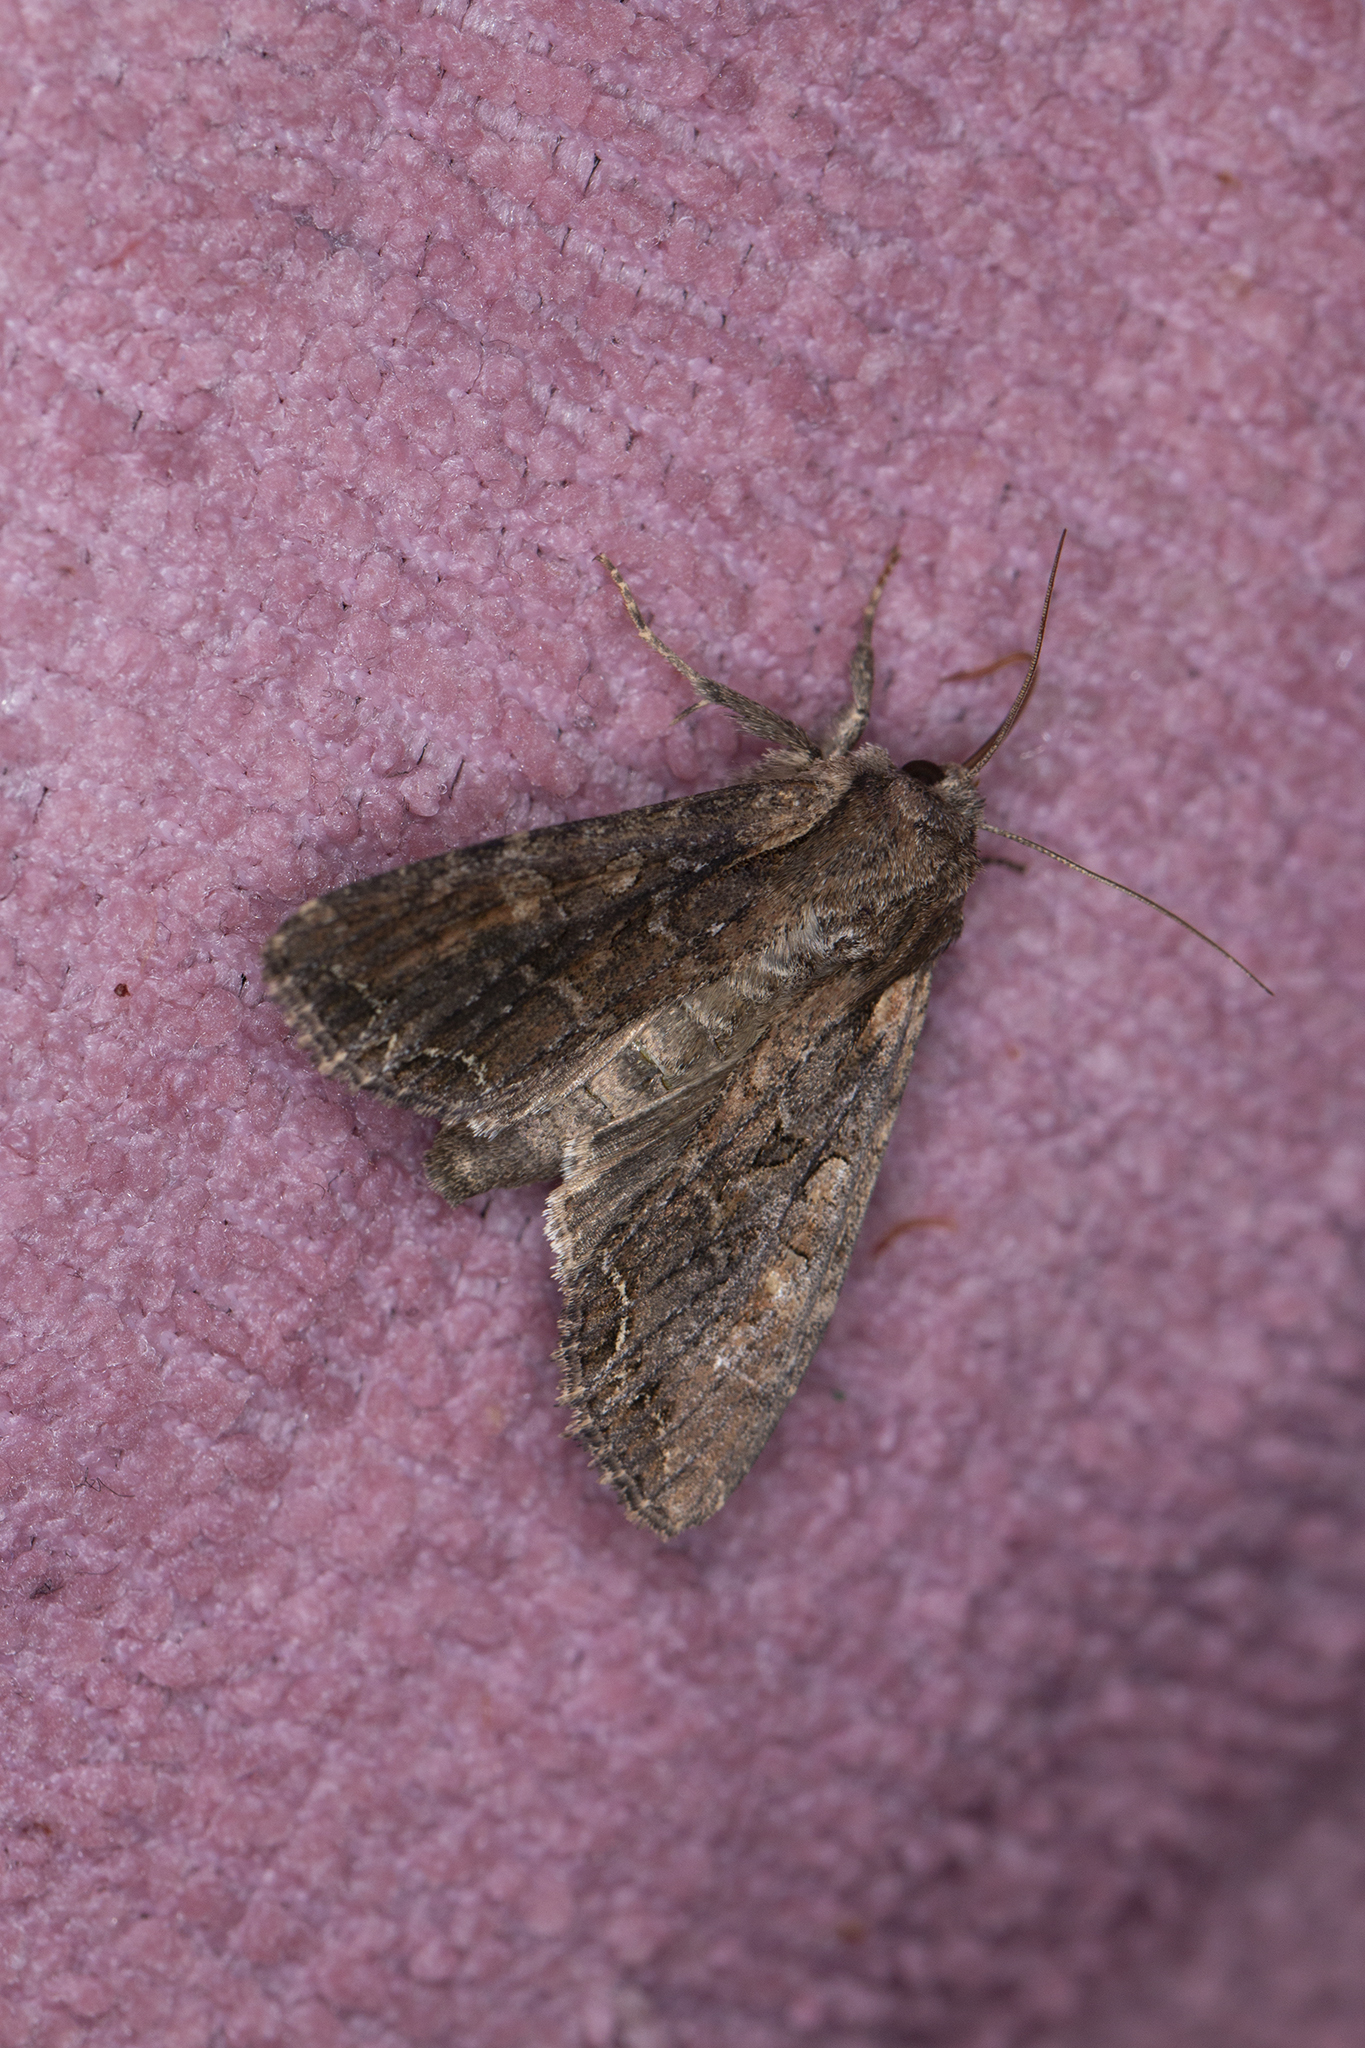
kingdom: Animalia
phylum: Arthropoda
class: Insecta
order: Lepidoptera
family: Noctuidae
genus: Lacanobia
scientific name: Lacanobia suasa
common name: Dog's tooth
